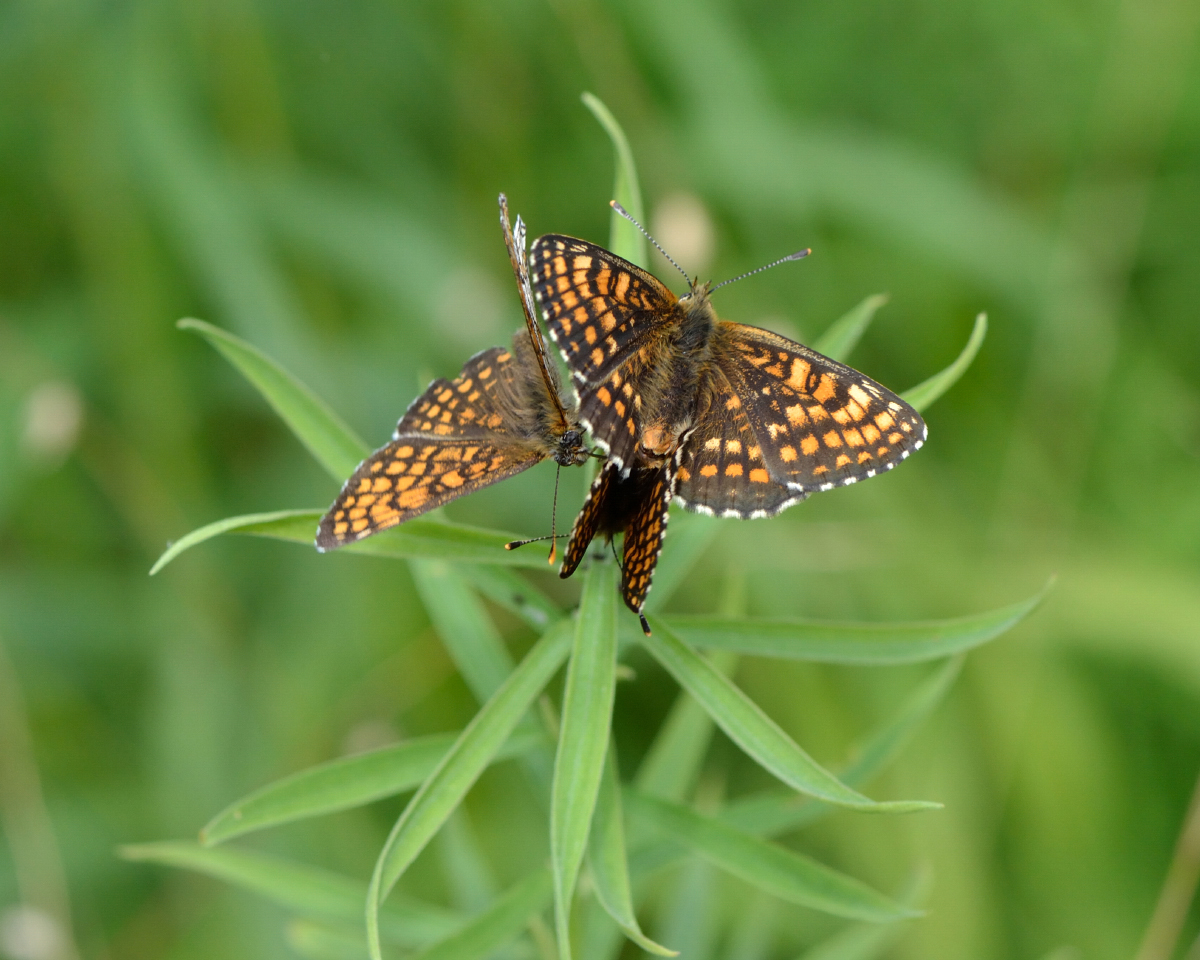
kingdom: Animalia
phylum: Arthropoda
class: Insecta
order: Lepidoptera
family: Nymphalidae
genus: Melitaea
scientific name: Melitaea athalia
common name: Heath fritillary
